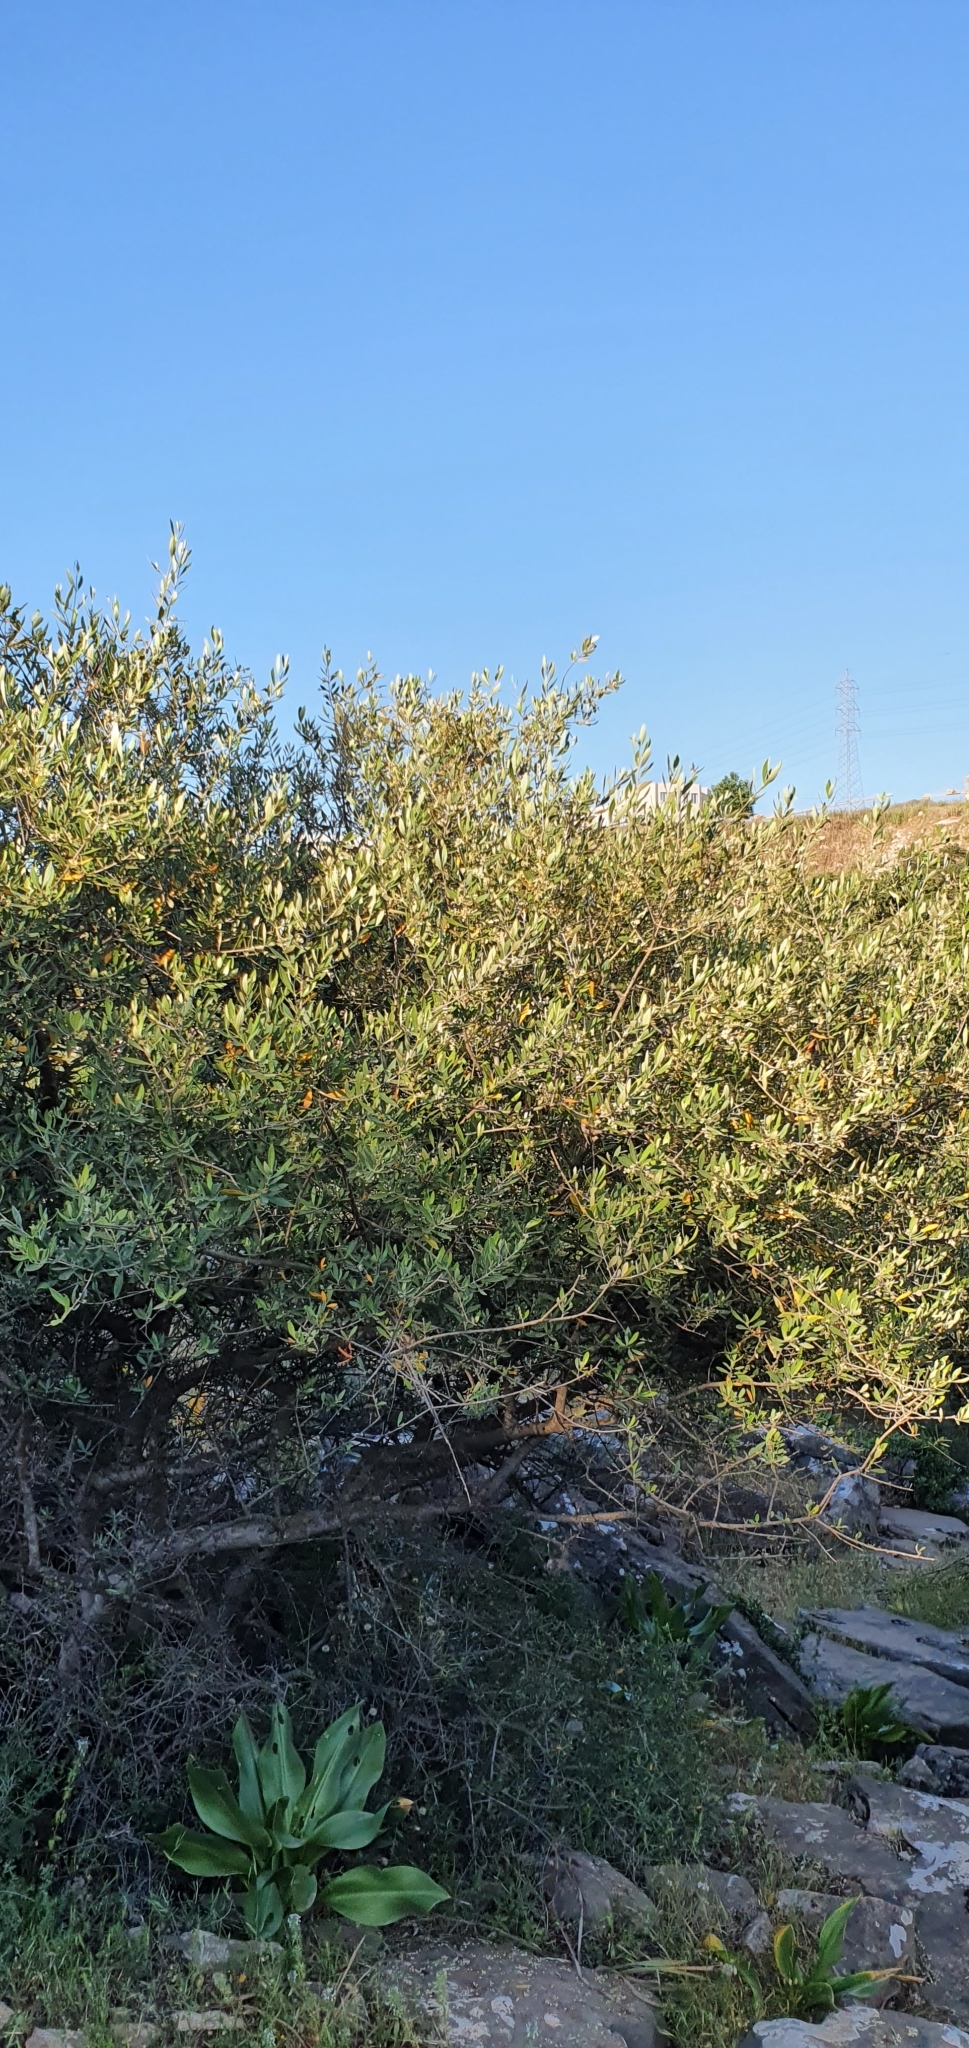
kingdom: Plantae
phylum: Tracheophyta
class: Magnoliopsida
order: Lamiales
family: Oleaceae
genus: Olea
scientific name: Olea europaea
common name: Olive
